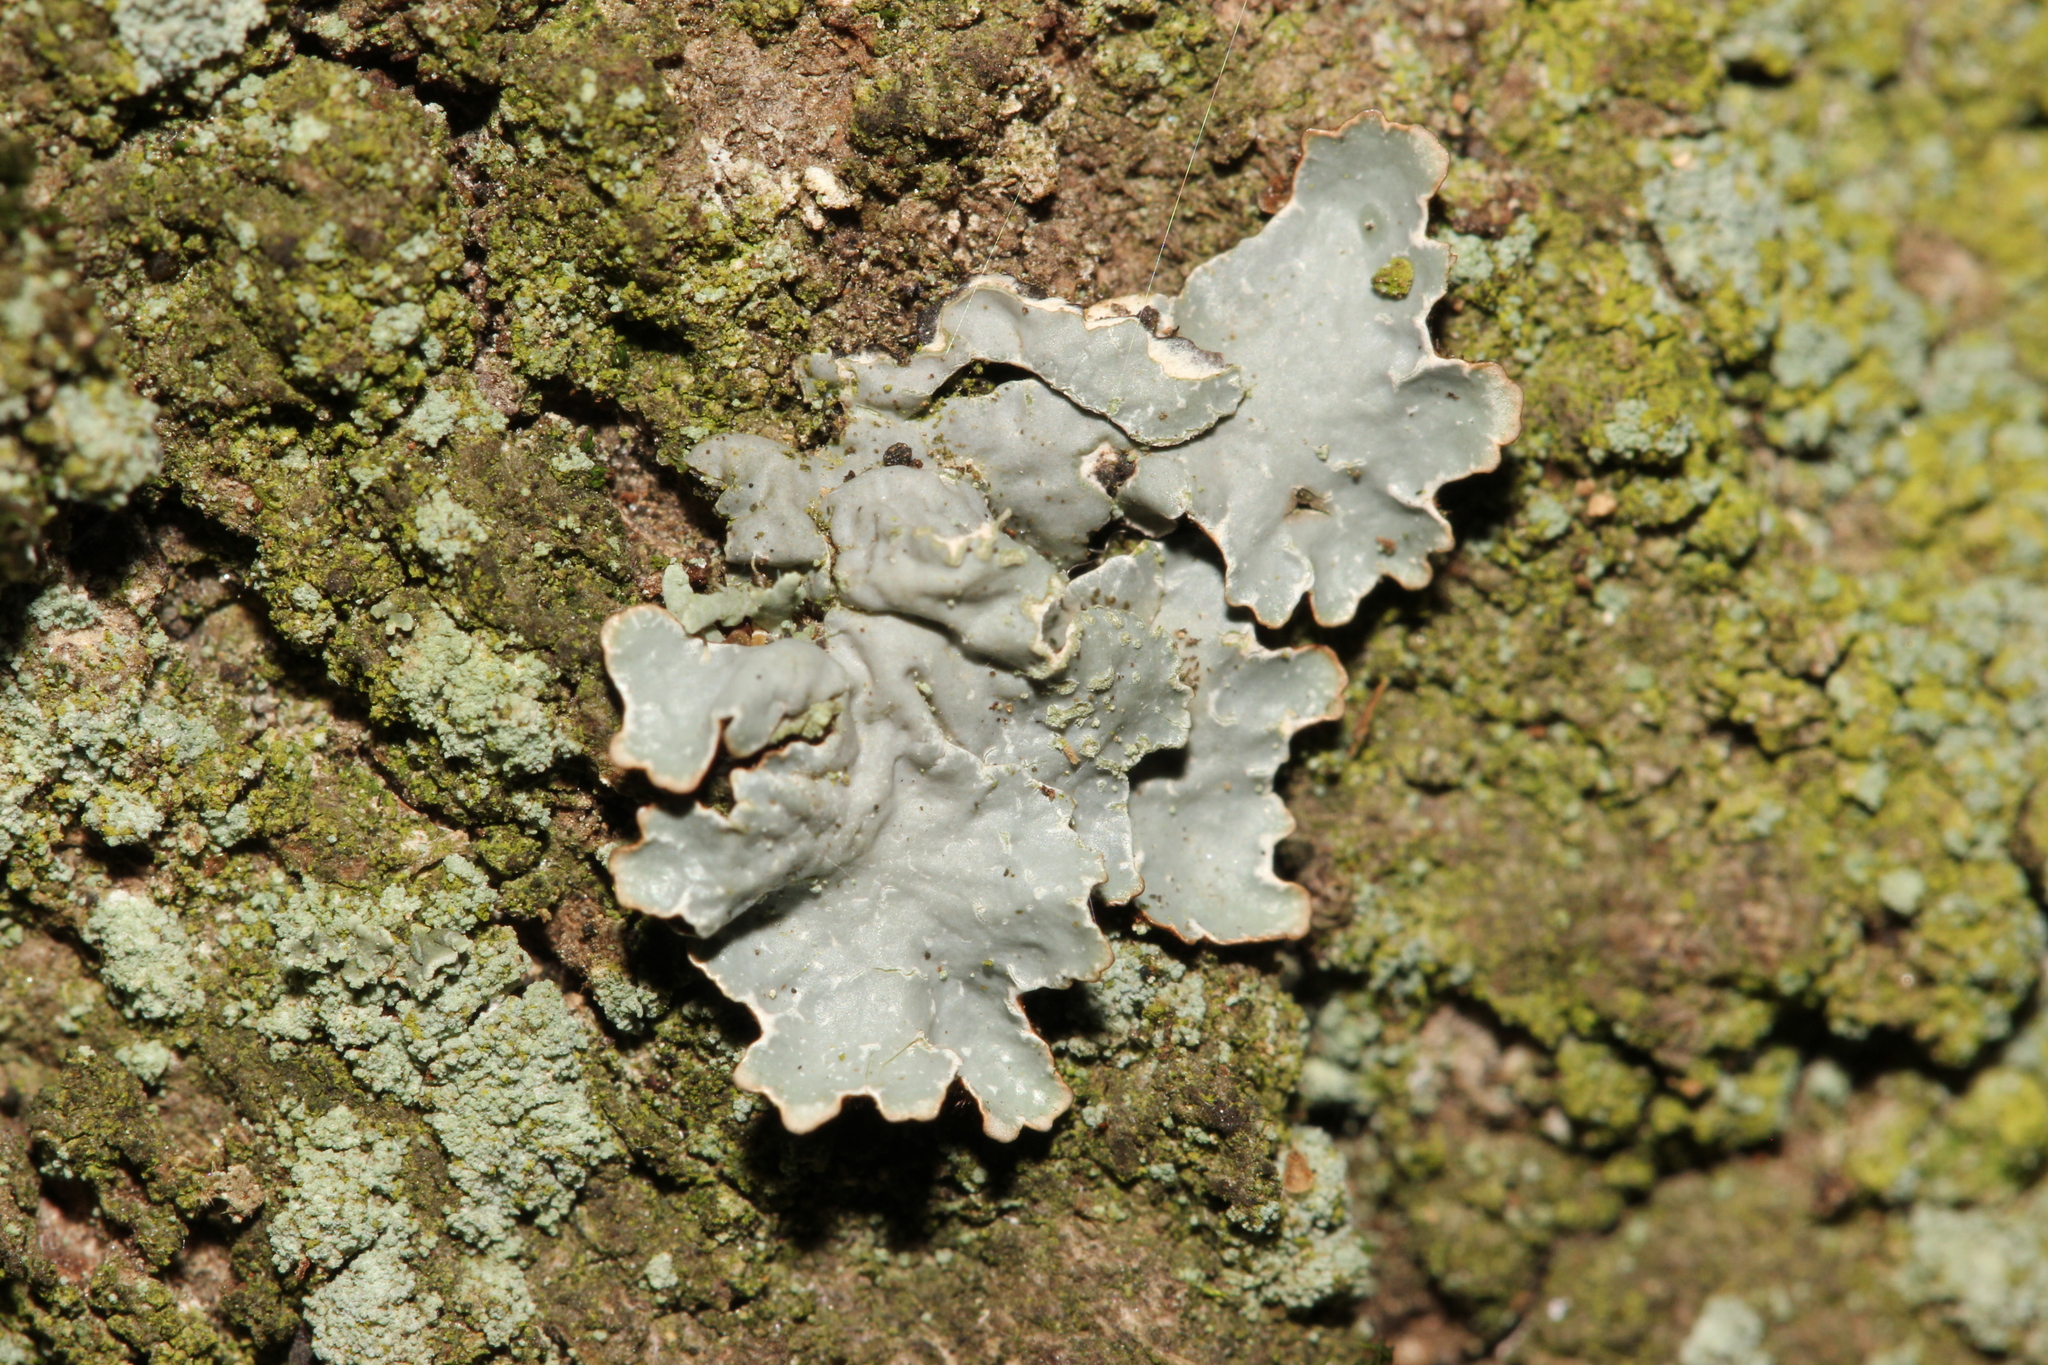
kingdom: Fungi
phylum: Ascomycota
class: Lecanoromycetes
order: Lecanorales
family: Parmeliaceae
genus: Parmelia
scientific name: Parmelia sulcata
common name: Netted shield lichen
